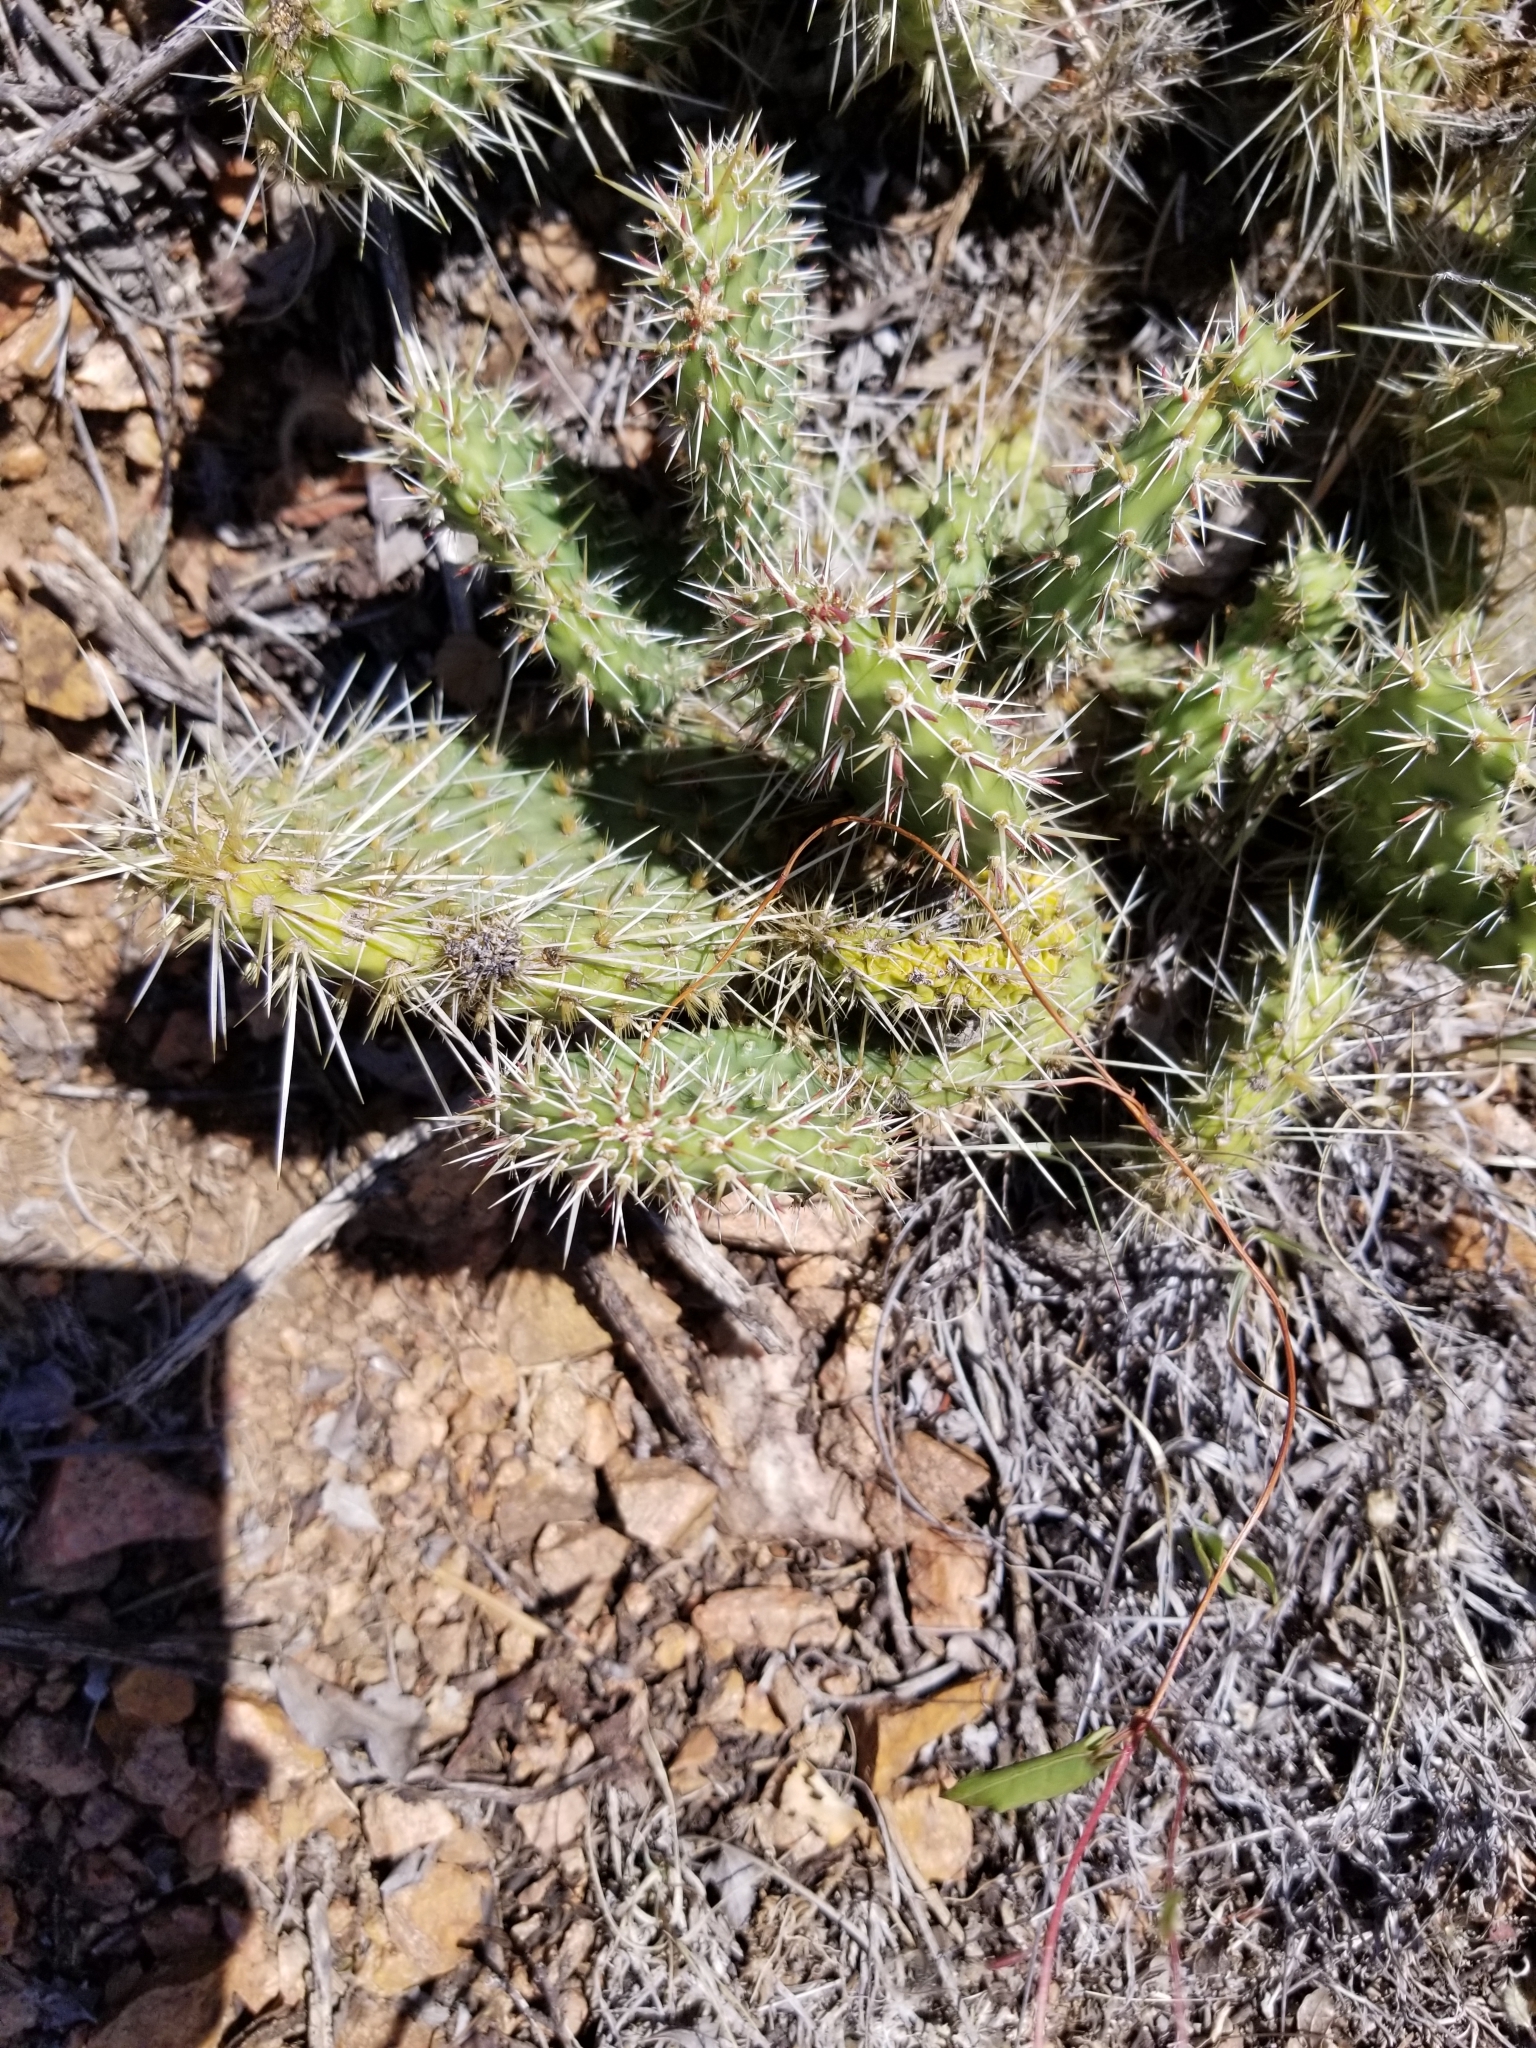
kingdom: Plantae
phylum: Tracheophyta
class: Magnoliopsida
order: Caryophyllales
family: Cactaceae
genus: Opuntia
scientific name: Opuntia polyacantha
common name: Plains prickly-pear
